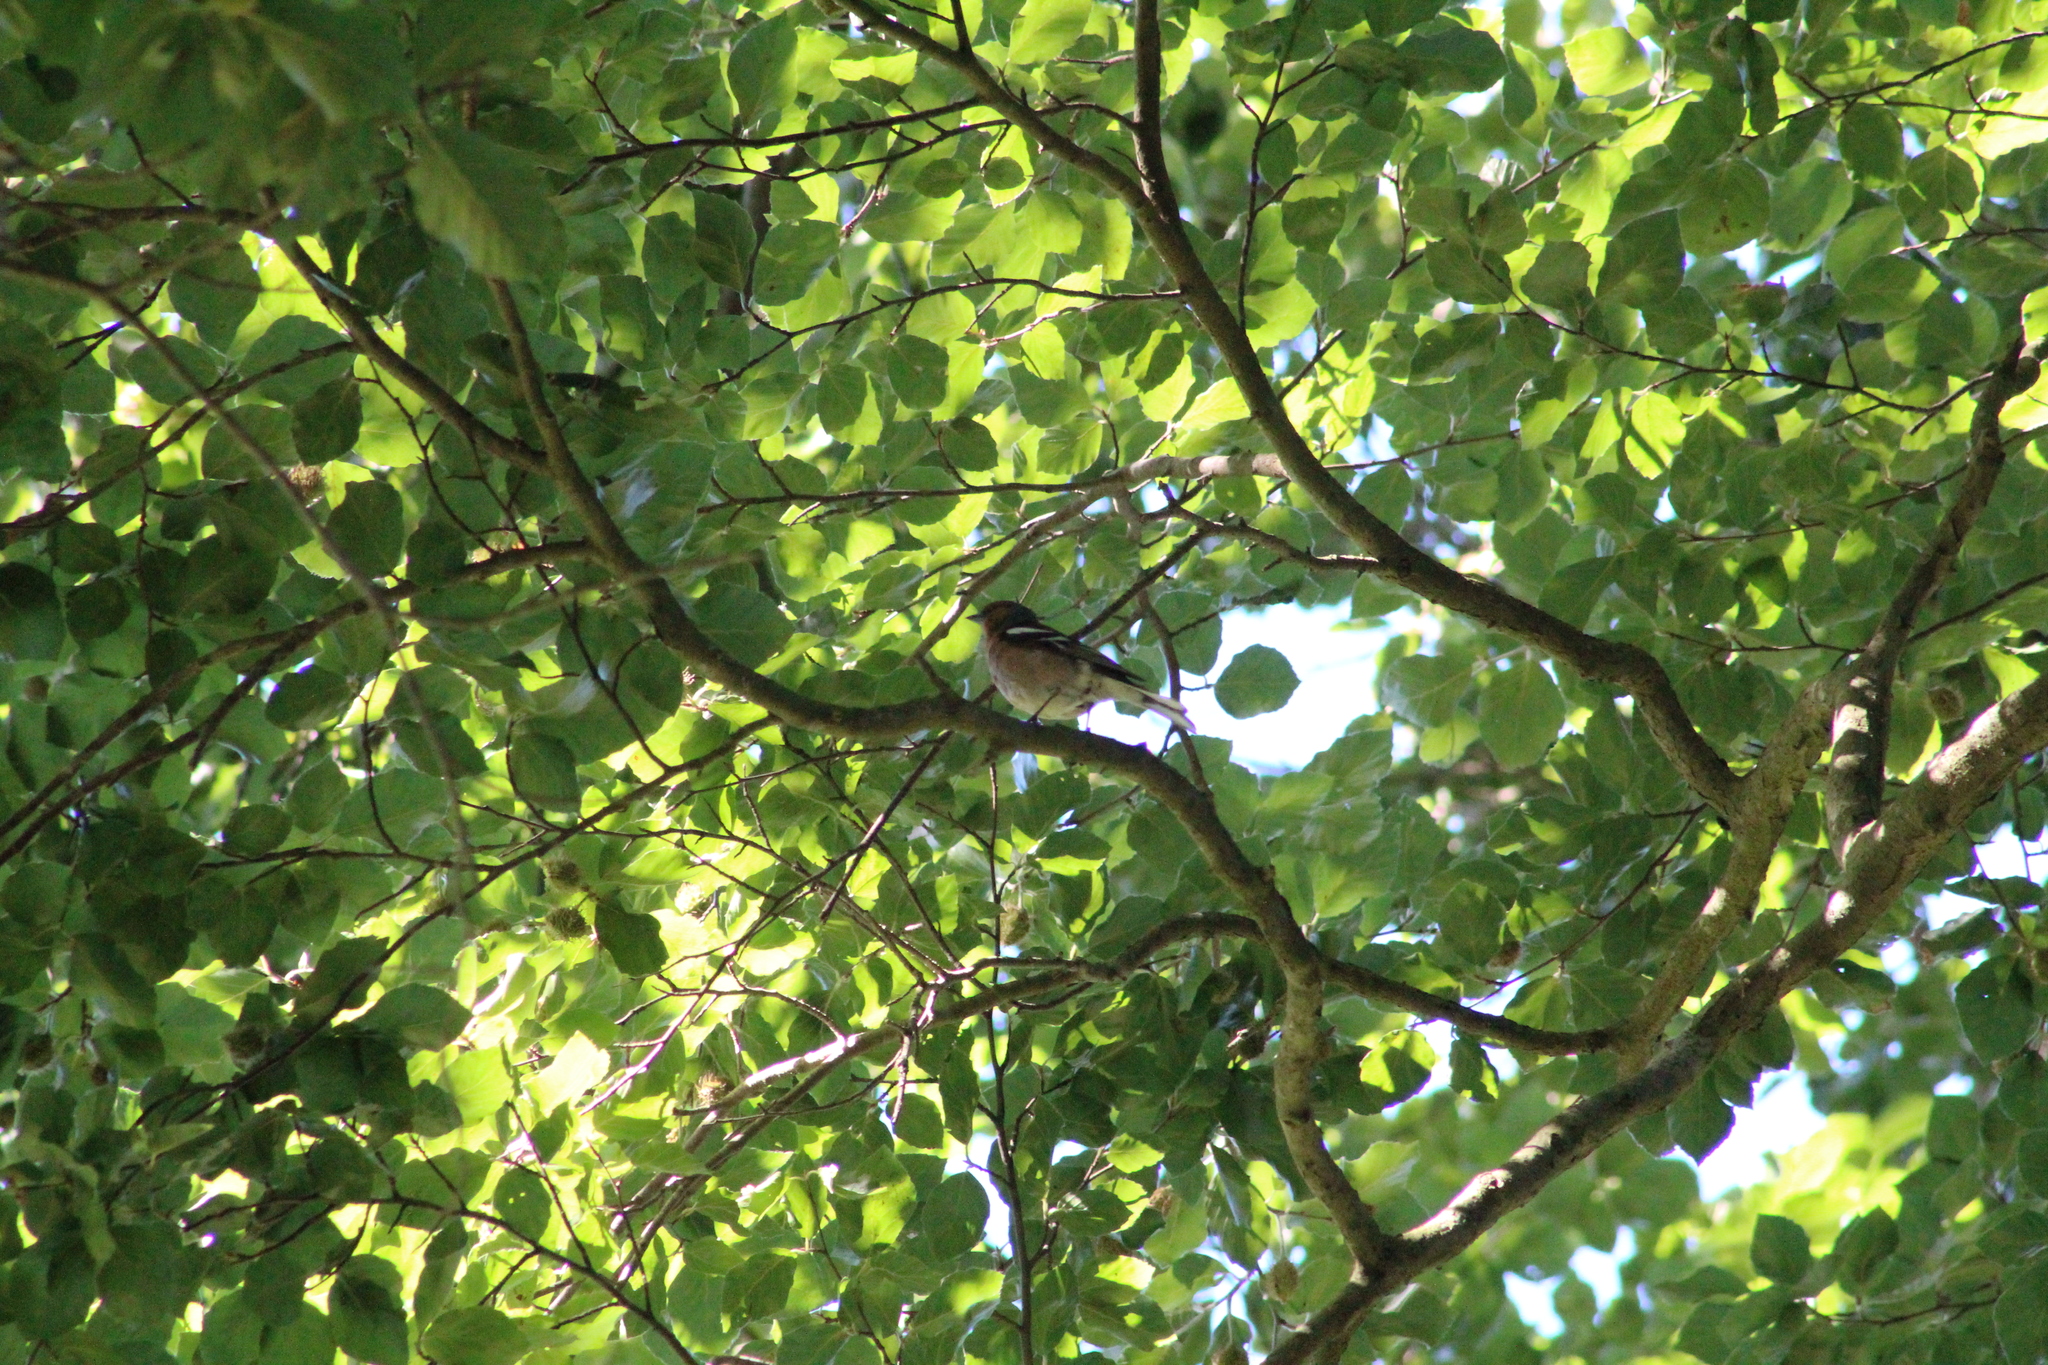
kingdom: Animalia
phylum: Chordata
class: Aves
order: Passeriformes
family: Fringillidae
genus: Fringilla
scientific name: Fringilla coelebs
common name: Common chaffinch
